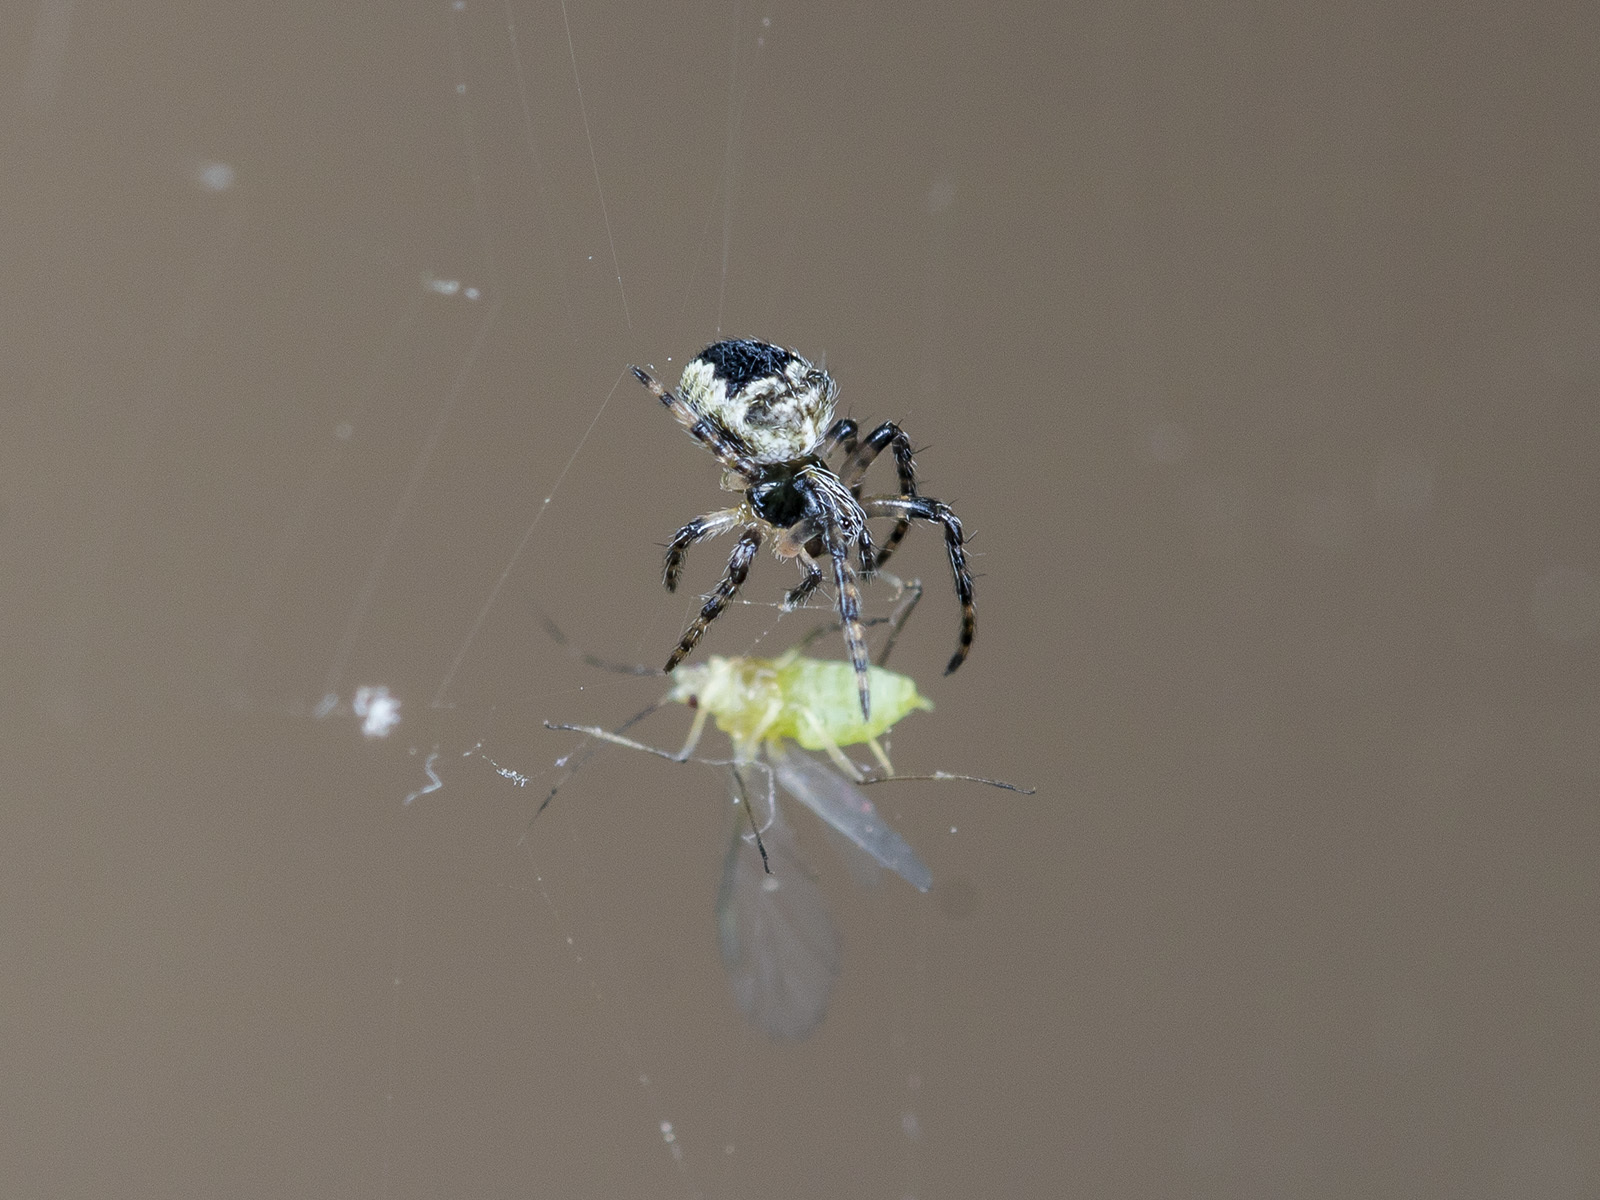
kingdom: Animalia
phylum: Arthropoda
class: Arachnida
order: Araneae
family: Araneidae
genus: Araneus
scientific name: Araneus tartaricus
